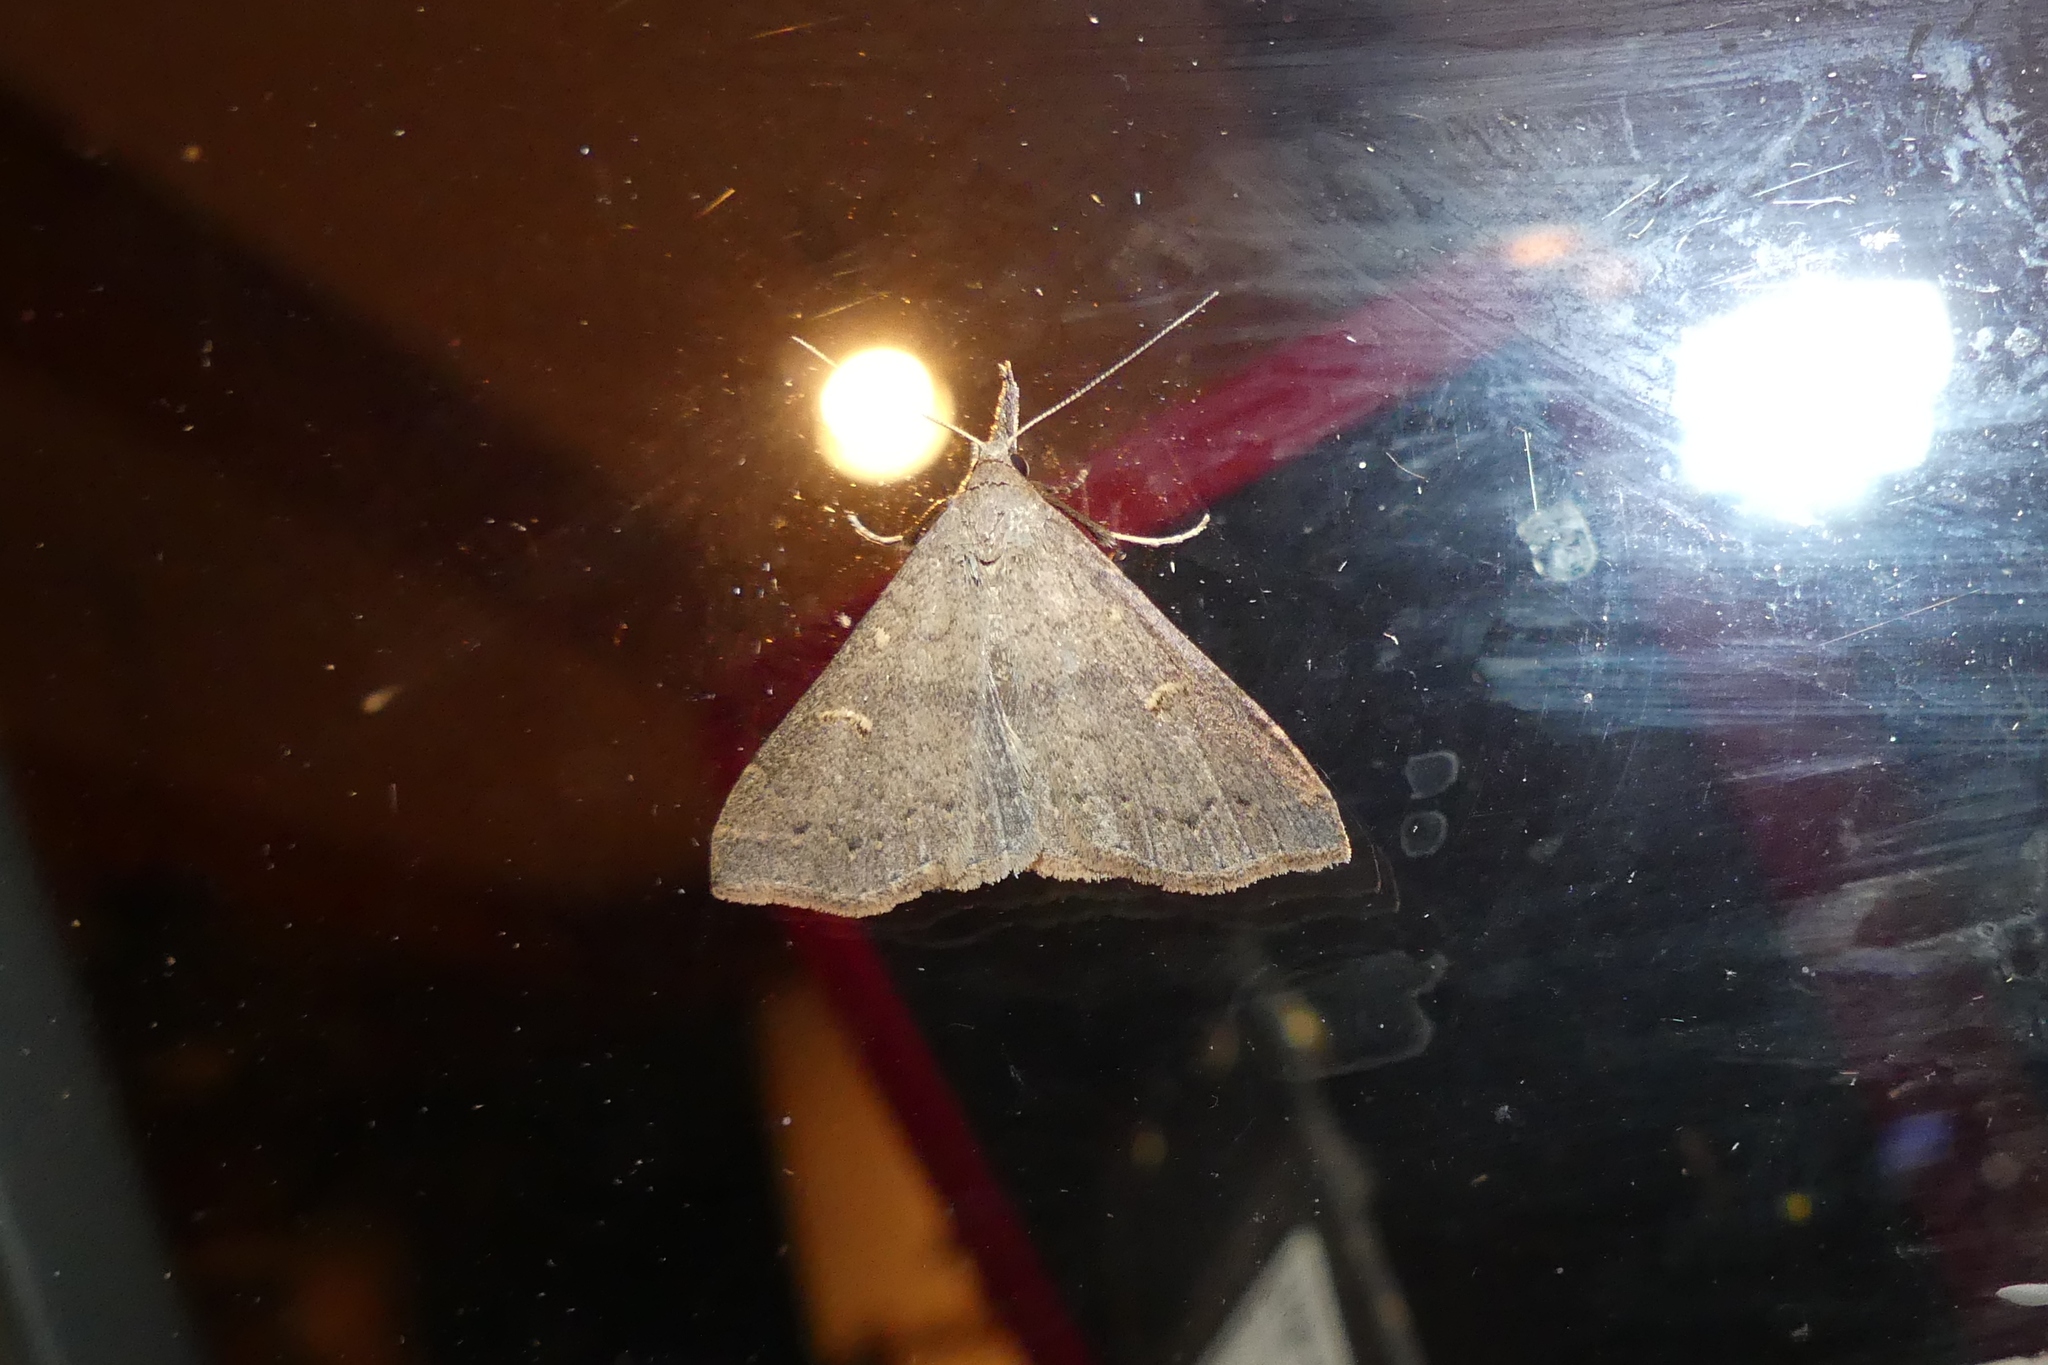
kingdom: Animalia
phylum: Arthropoda
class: Insecta
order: Lepidoptera
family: Erebidae
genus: Renia
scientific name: Renia adspergillus
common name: Speckled renia moth
